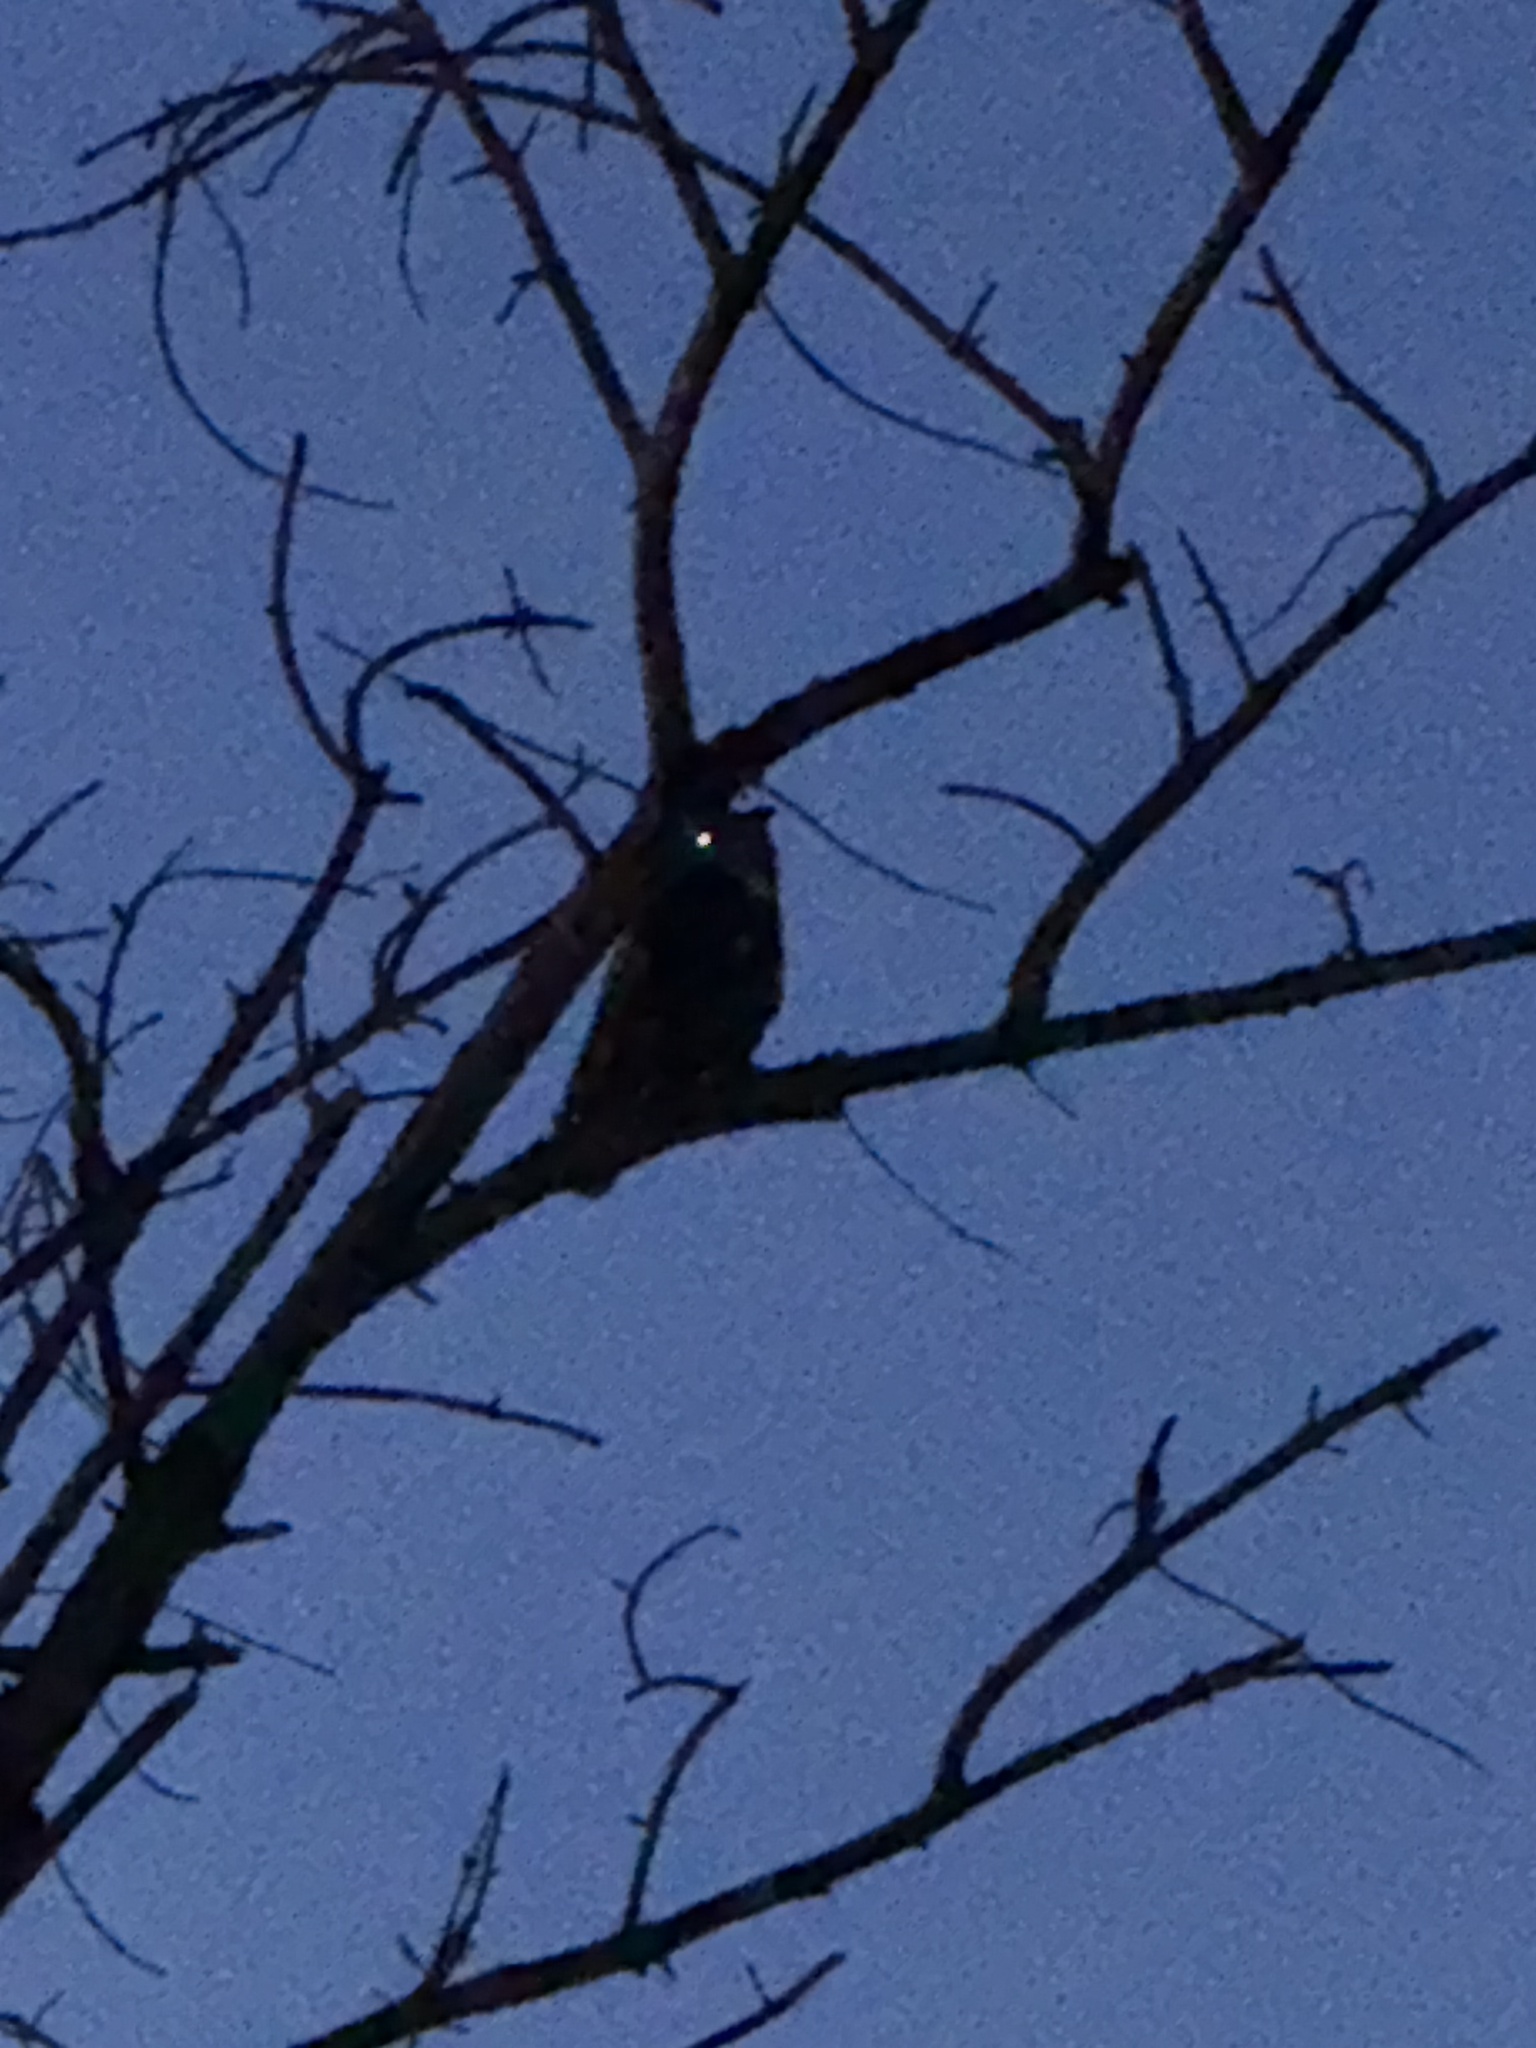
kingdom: Animalia
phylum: Chordata
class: Aves
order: Strigiformes
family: Strigidae
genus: Bubo
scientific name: Bubo virginianus
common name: Great horned owl
